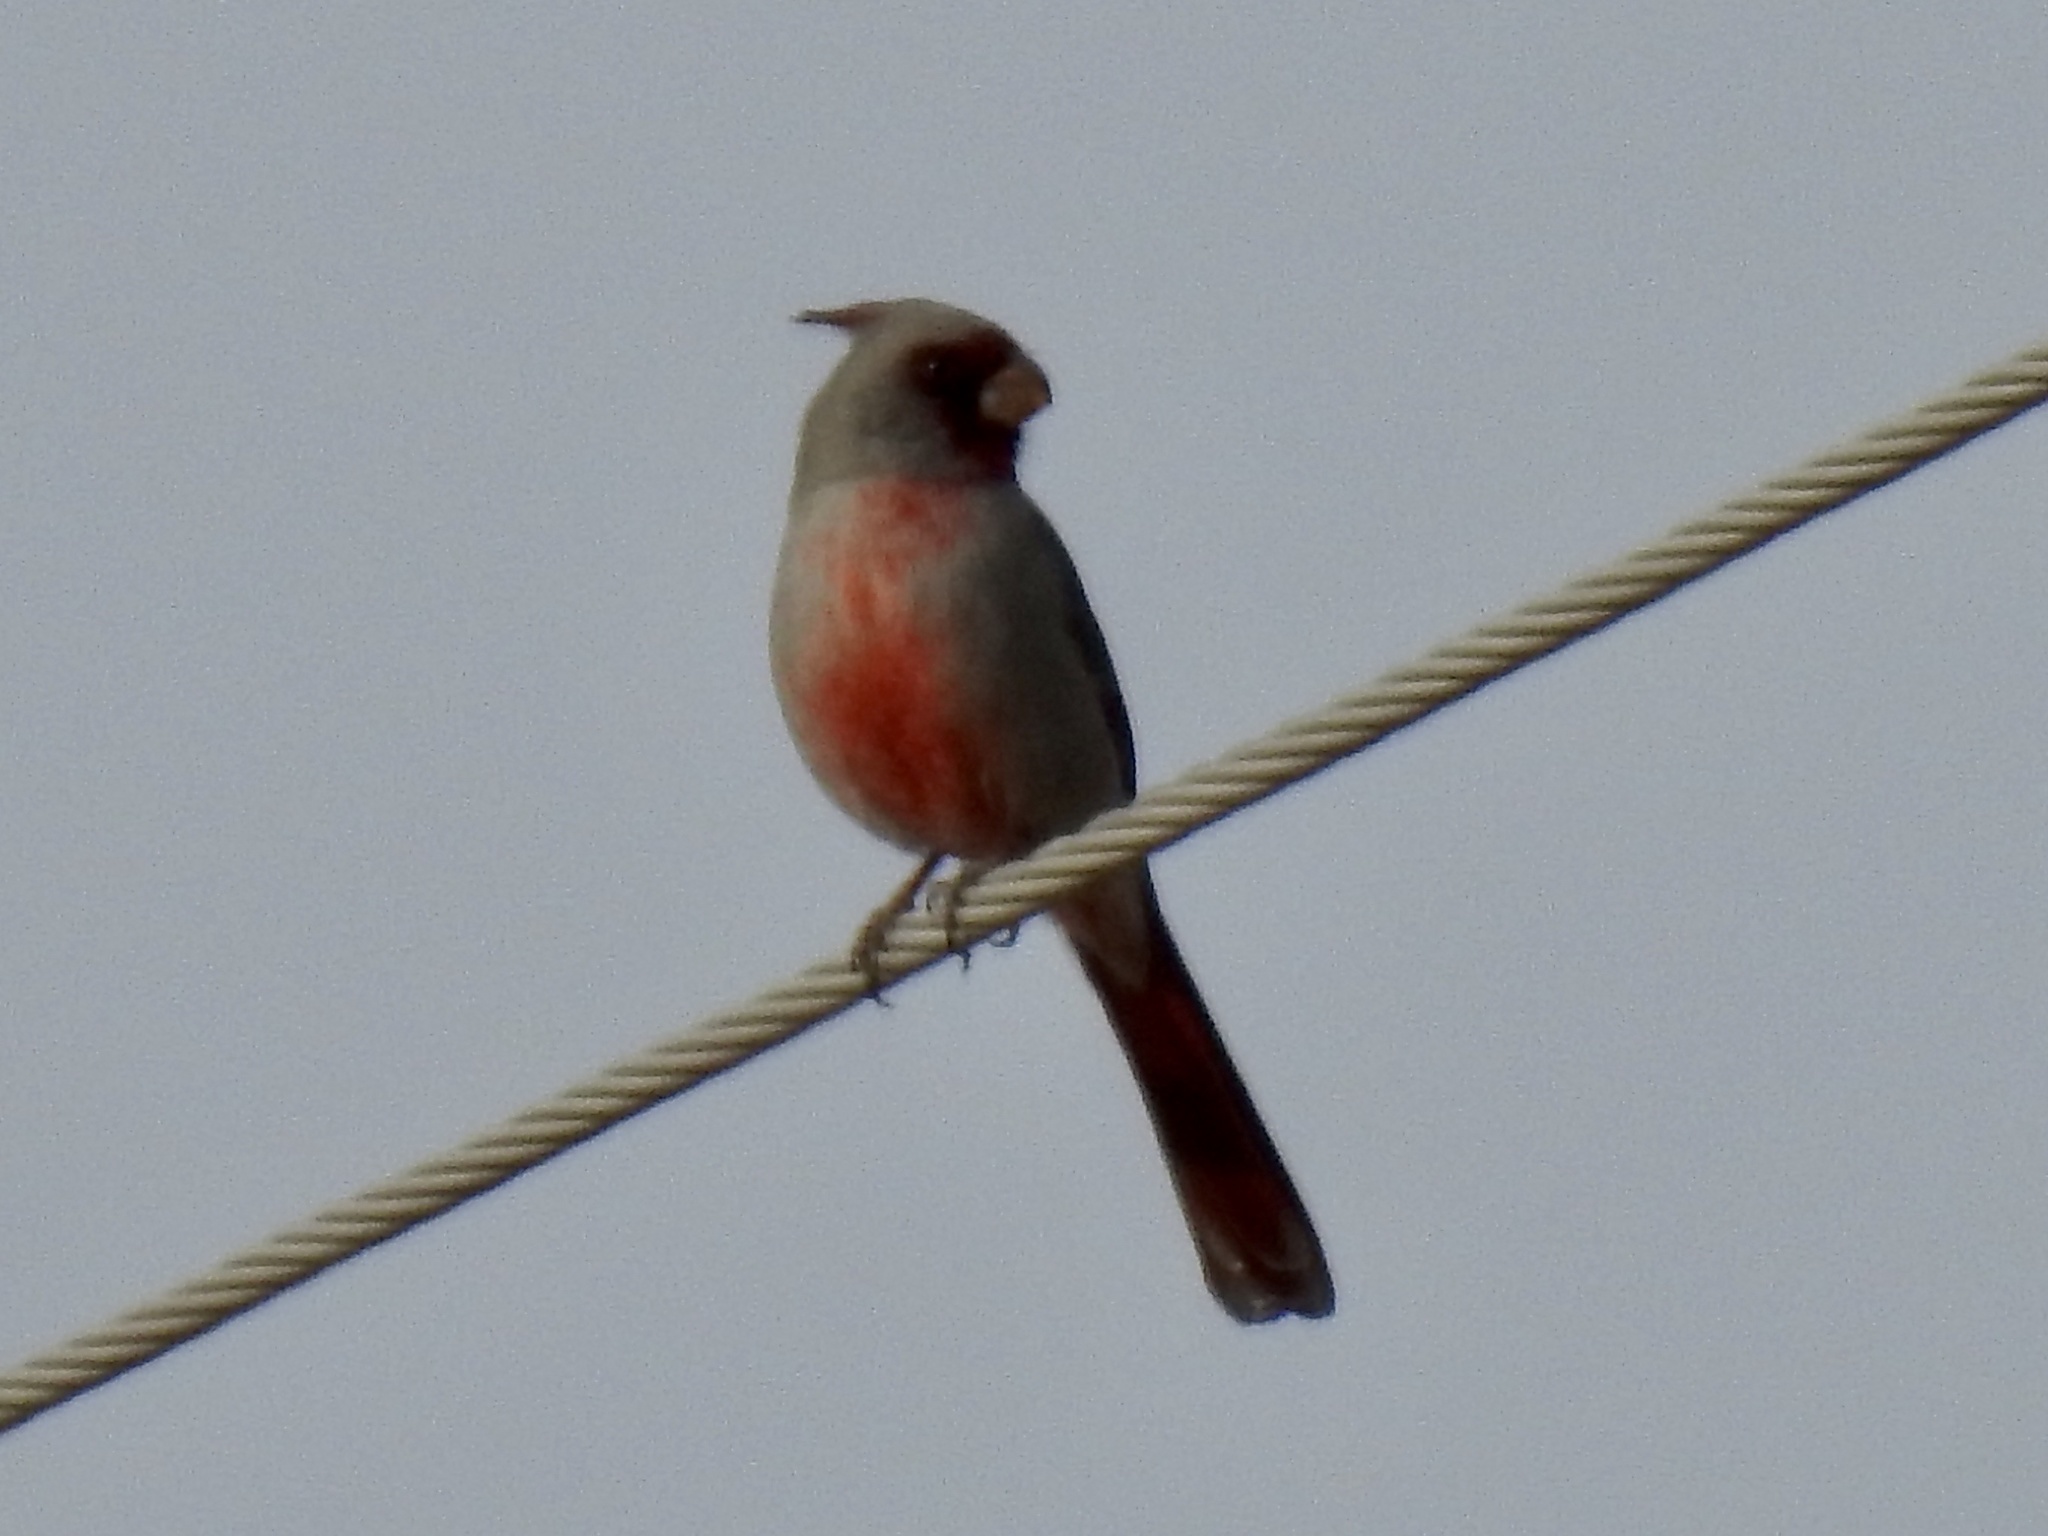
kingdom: Animalia
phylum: Chordata
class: Aves
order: Passeriformes
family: Cardinalidae
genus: Cardinalis
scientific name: Cardinalis sinuatus
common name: Pyrrhuloxia
